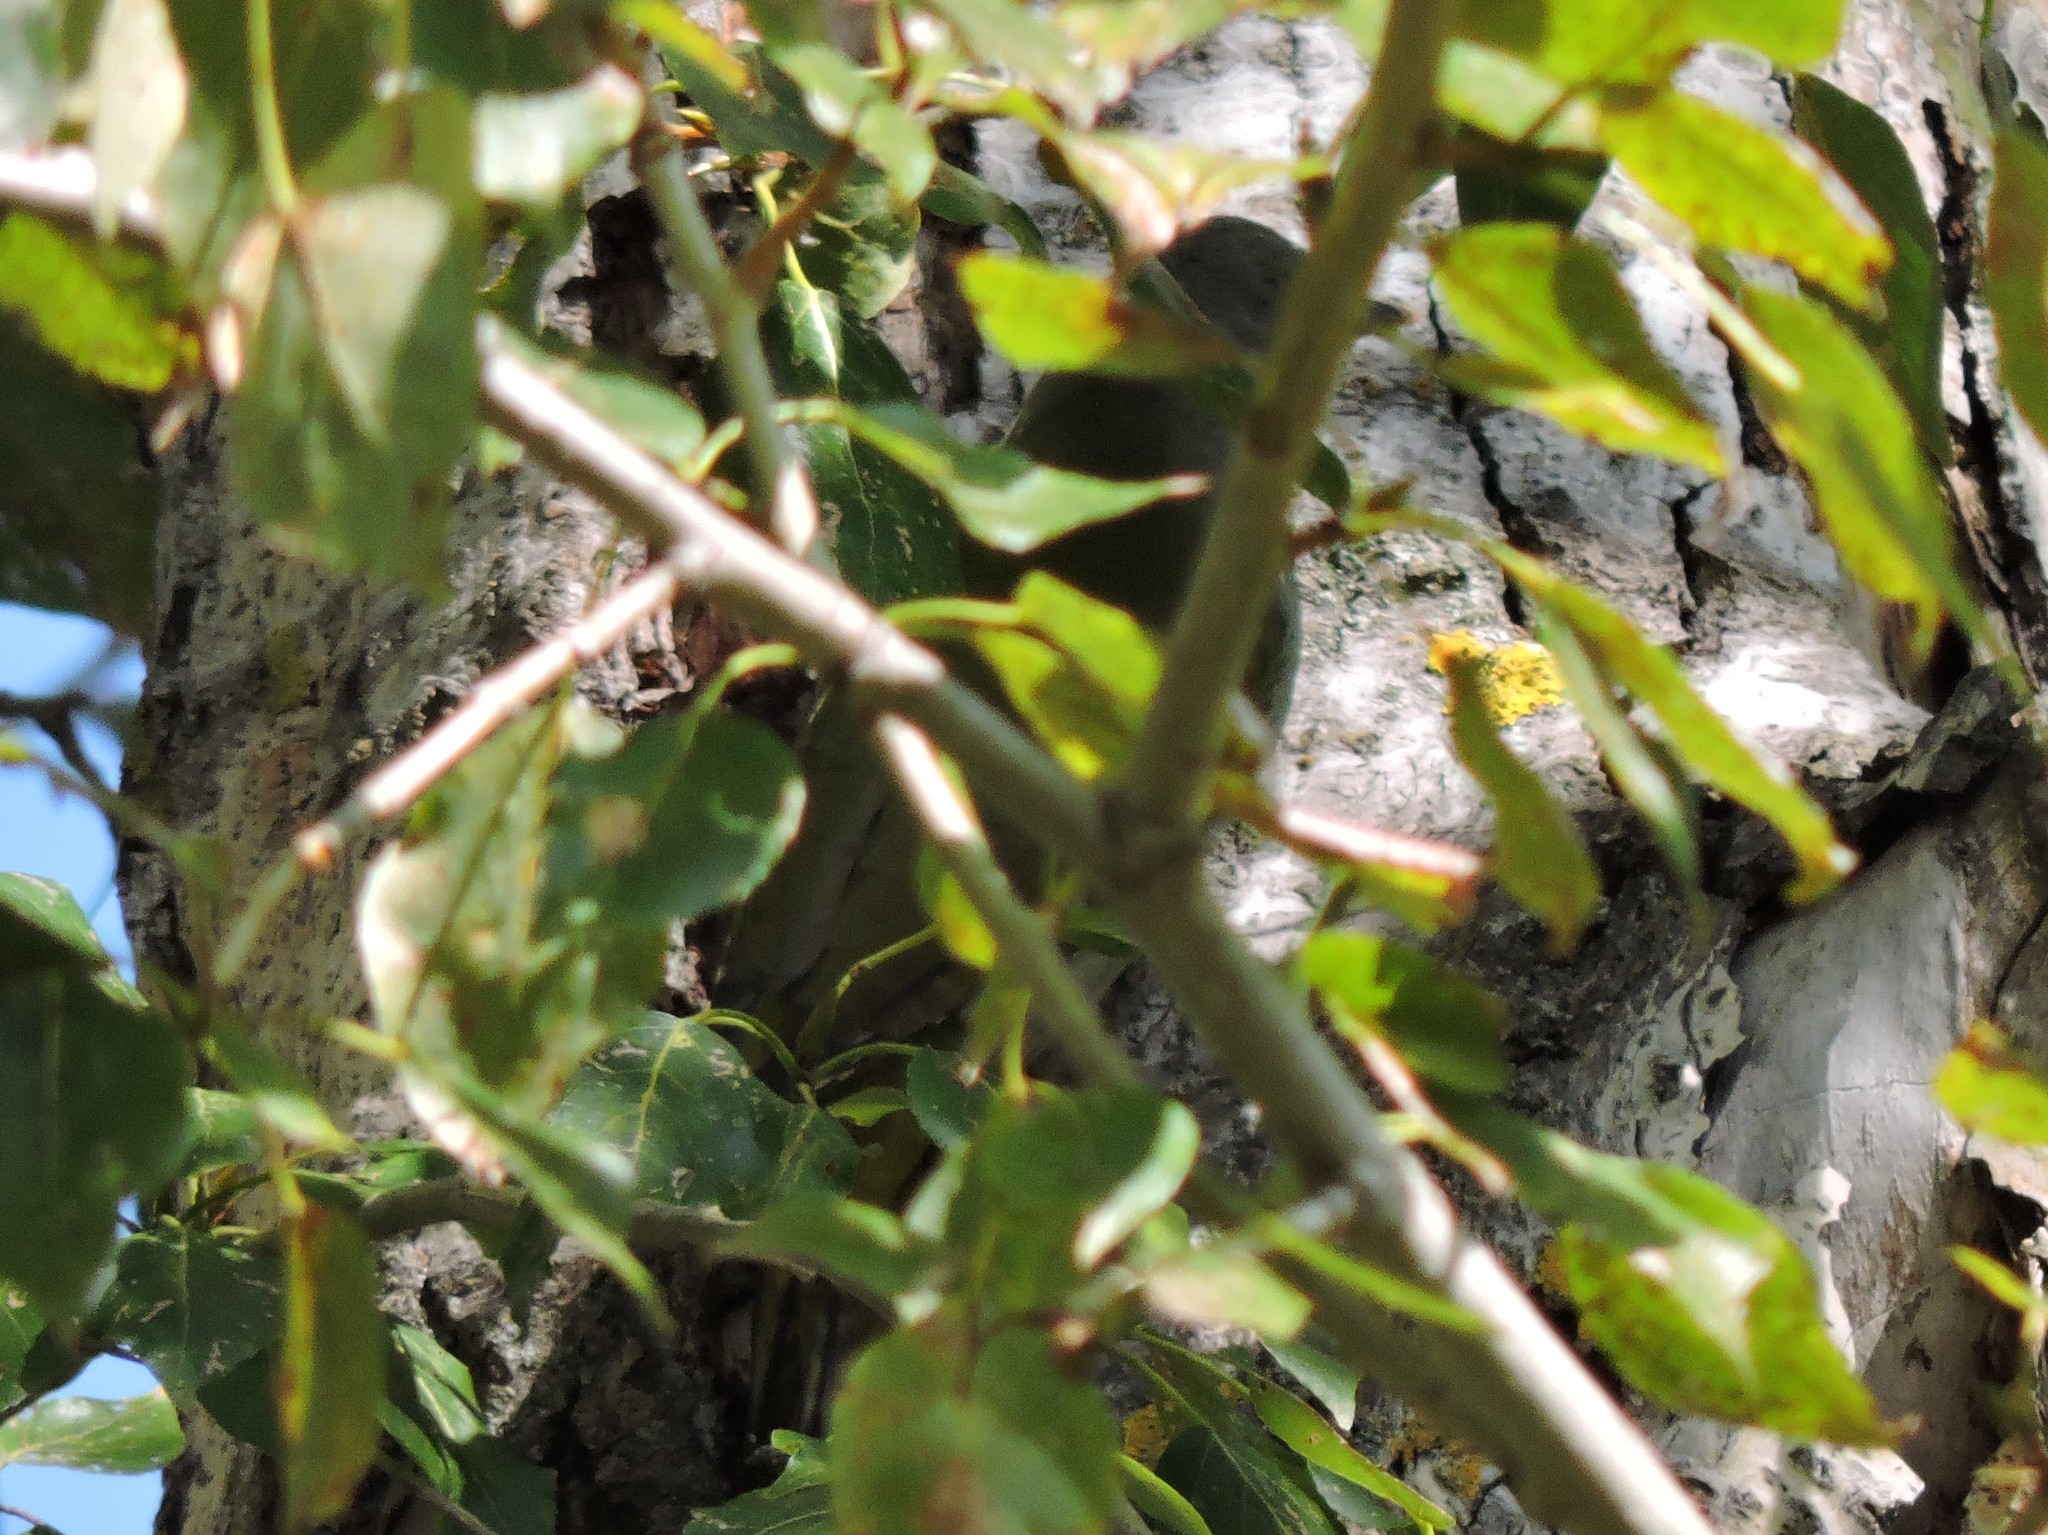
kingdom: Animalia
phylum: Chordata
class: Aves
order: Piciformes
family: Picidae
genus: Picus
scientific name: Picus canus
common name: Grey-headed woodpecker
